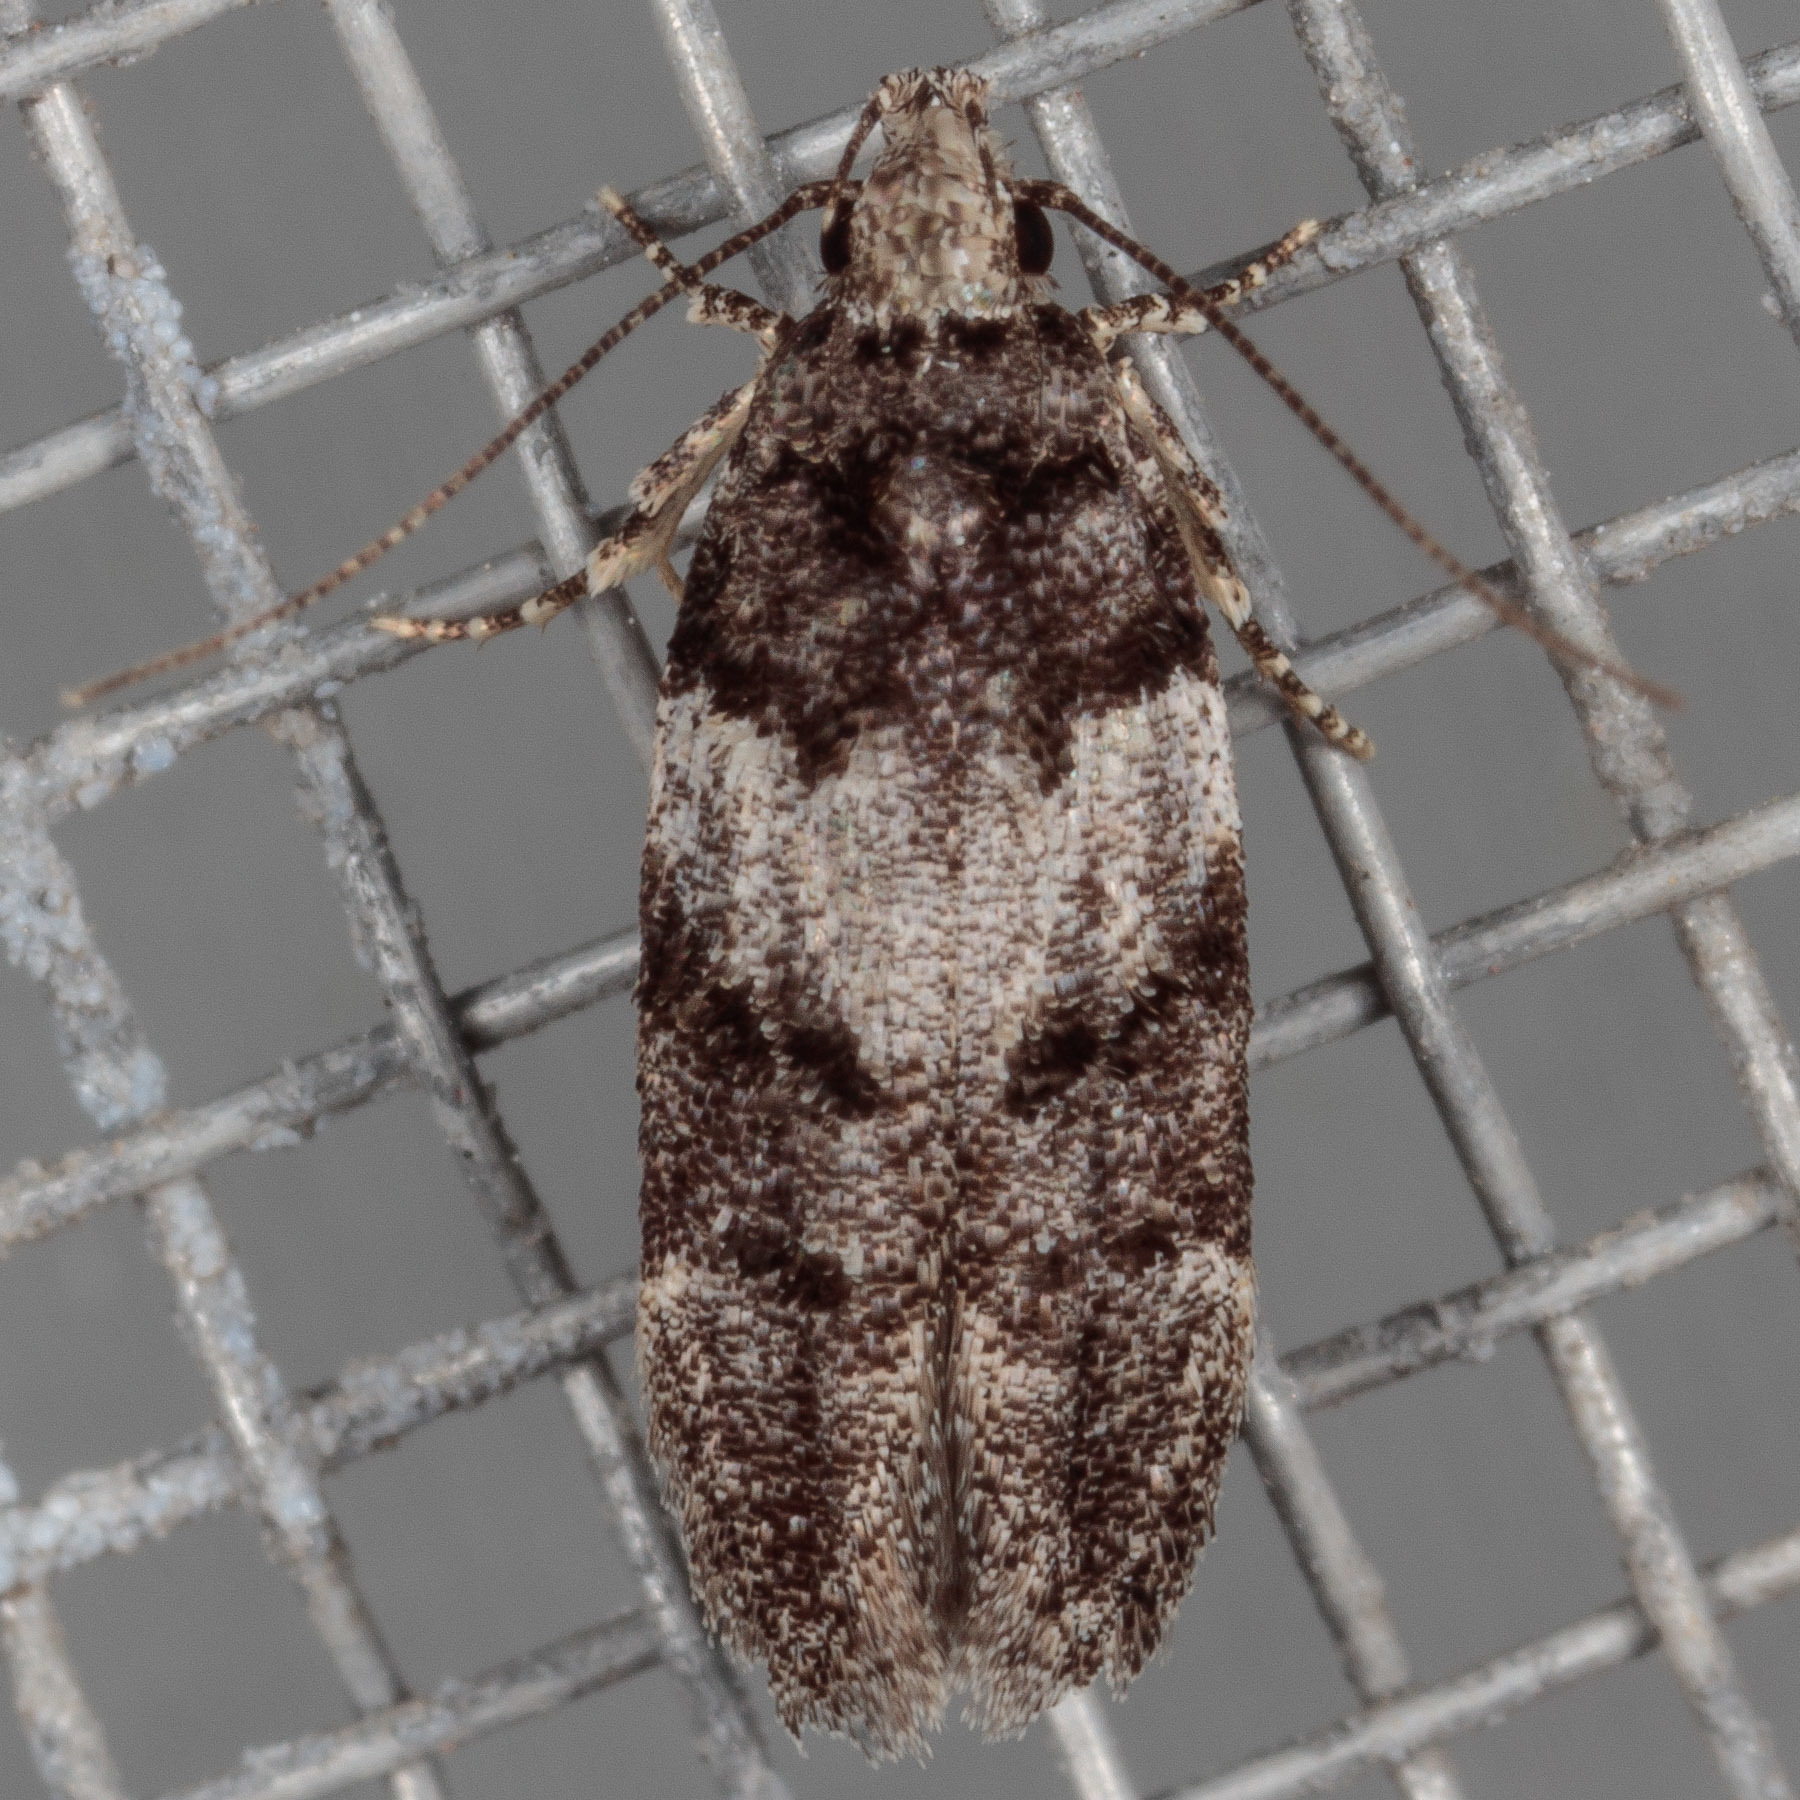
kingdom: Animalia
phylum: Arthropoda
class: Insecta
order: Lepidoptera
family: Gelechiidae
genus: Pubitelphusa
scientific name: Pubitelphusa latifasciella
